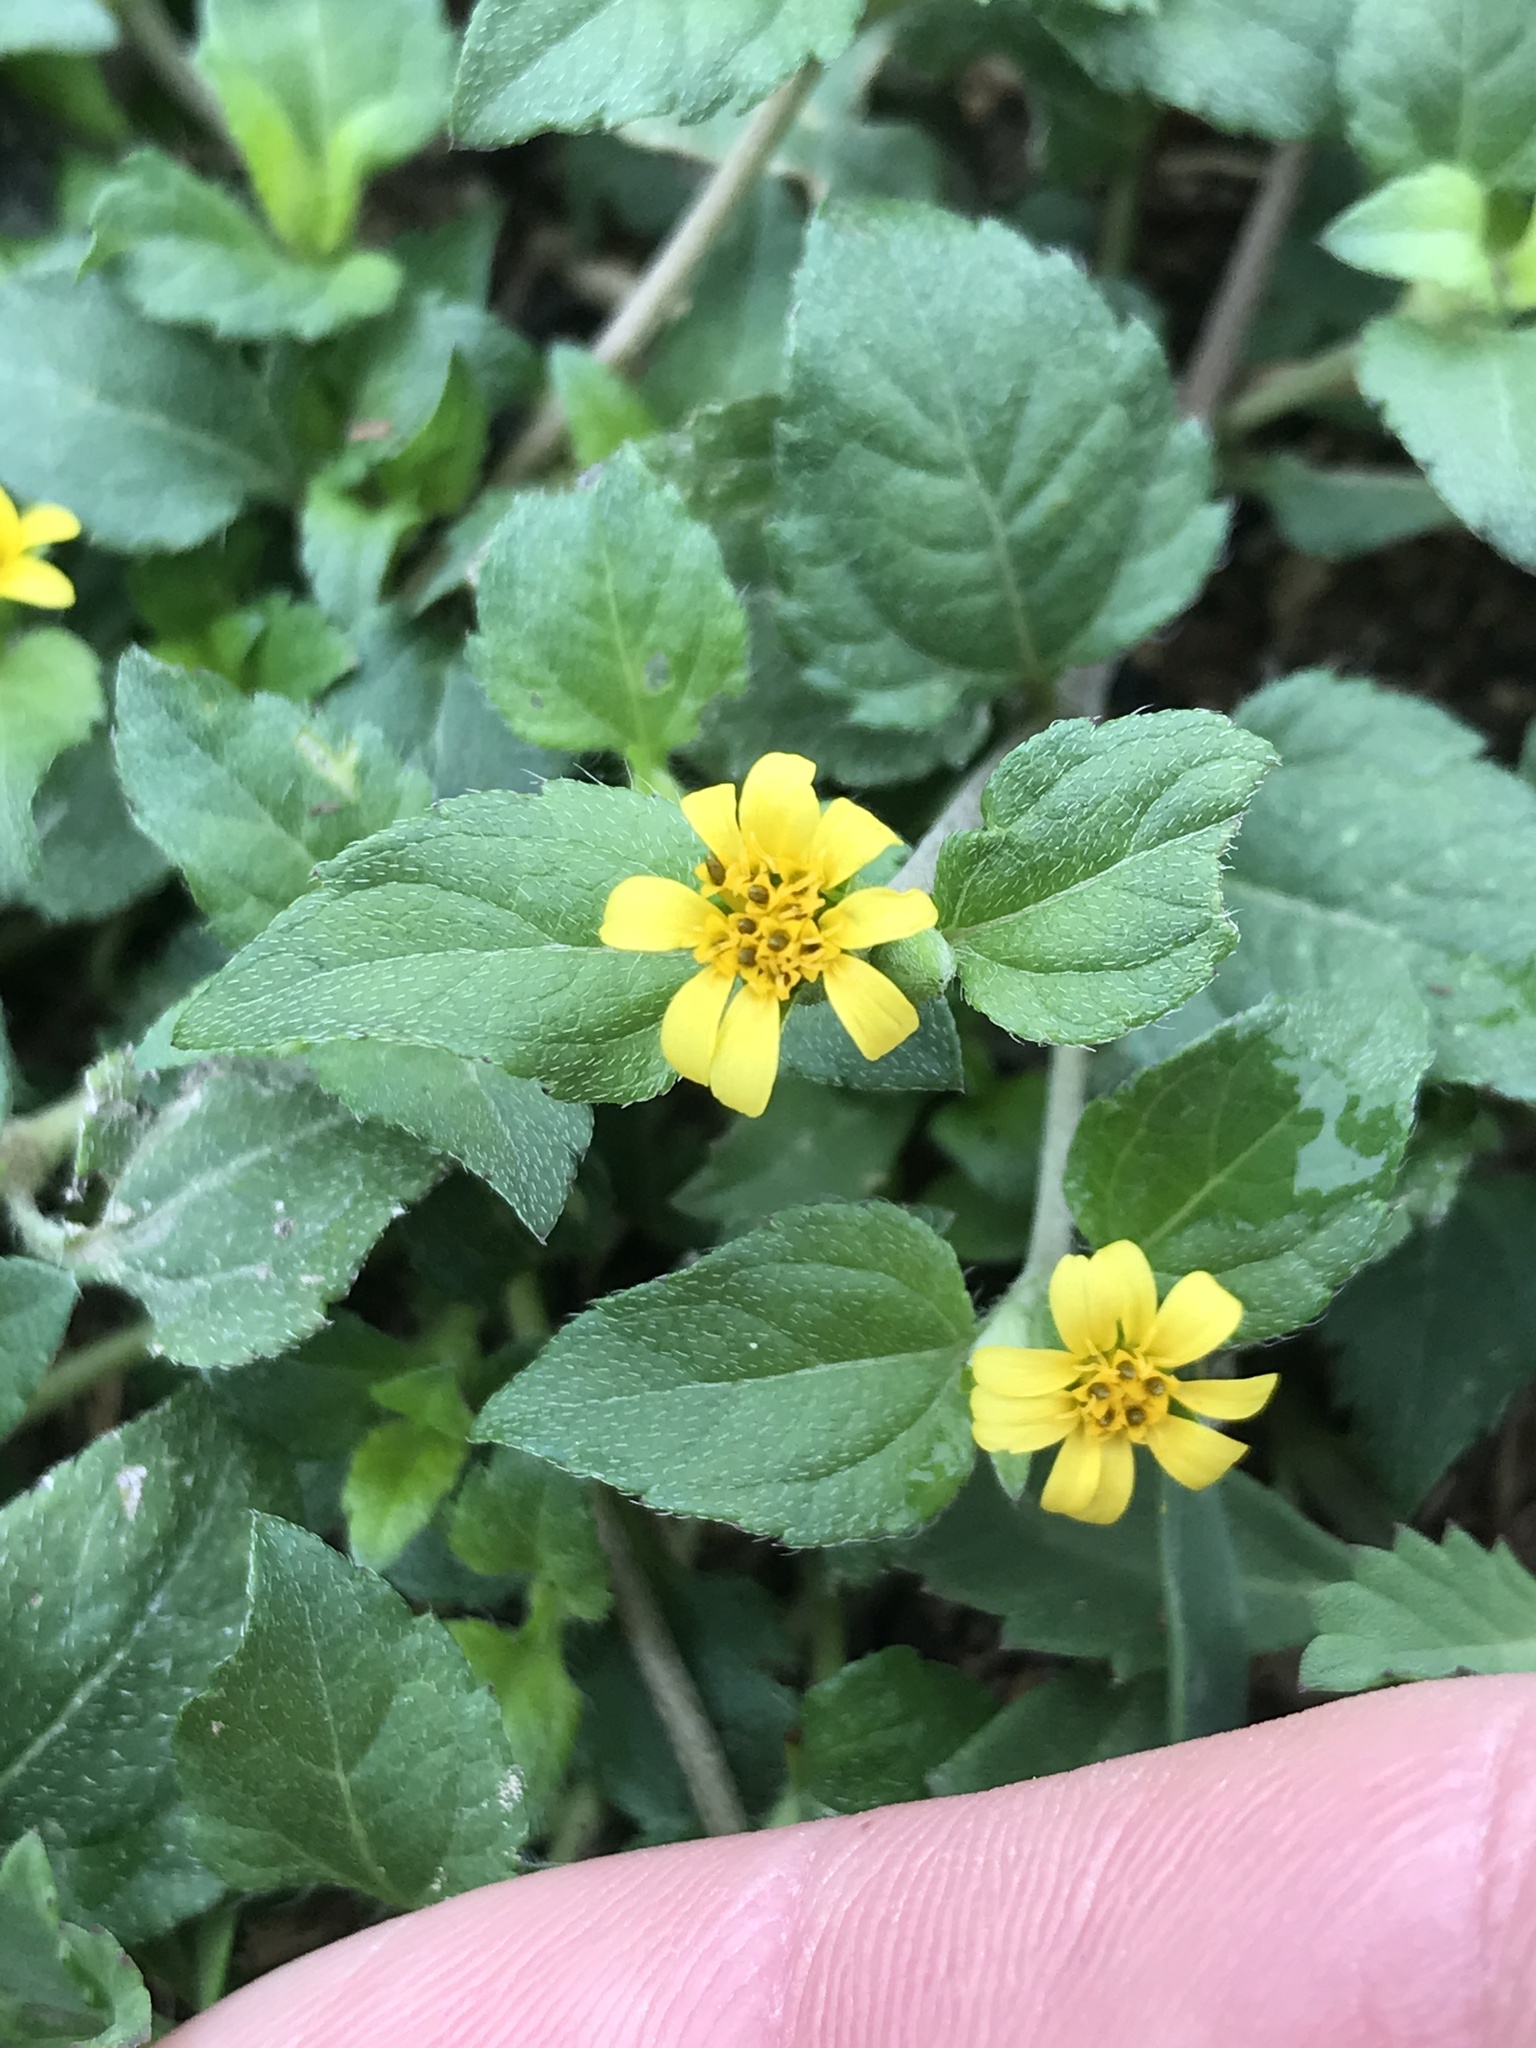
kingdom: Plantae
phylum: Tracheophyta
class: Magnoliopsida
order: Asterales
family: Asteraceae
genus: Calyptocarpus
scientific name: Calyptocarpus vialis
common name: Straggler daisy
